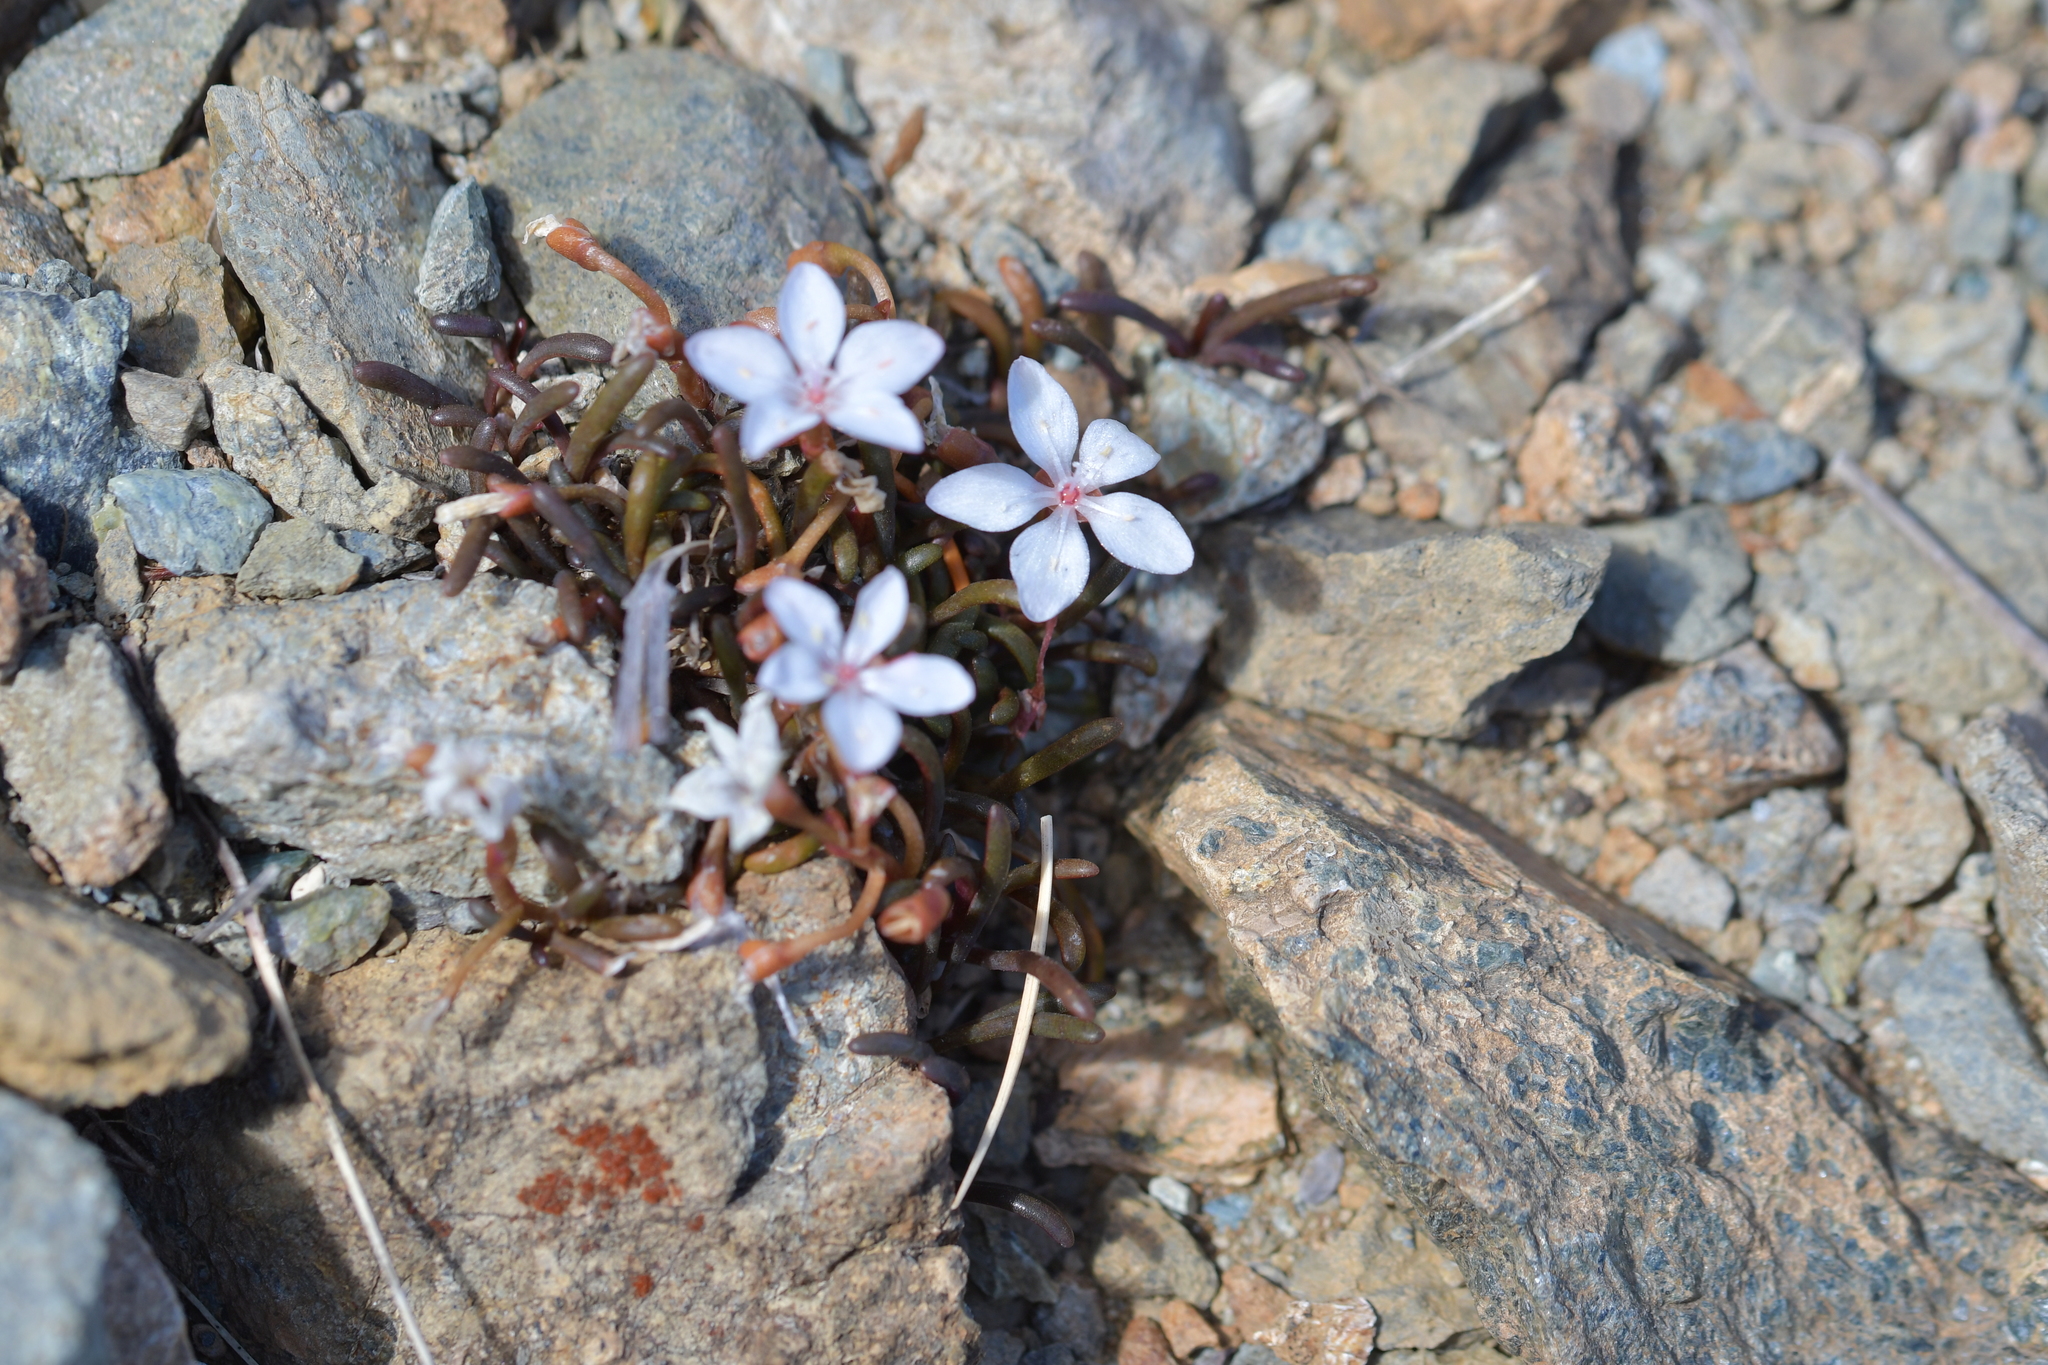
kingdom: Plantae
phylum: Tracheophyta
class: Magnoliopsida
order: Caryophyllales
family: Montiaceae
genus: Montia
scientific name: Montia racemosa
